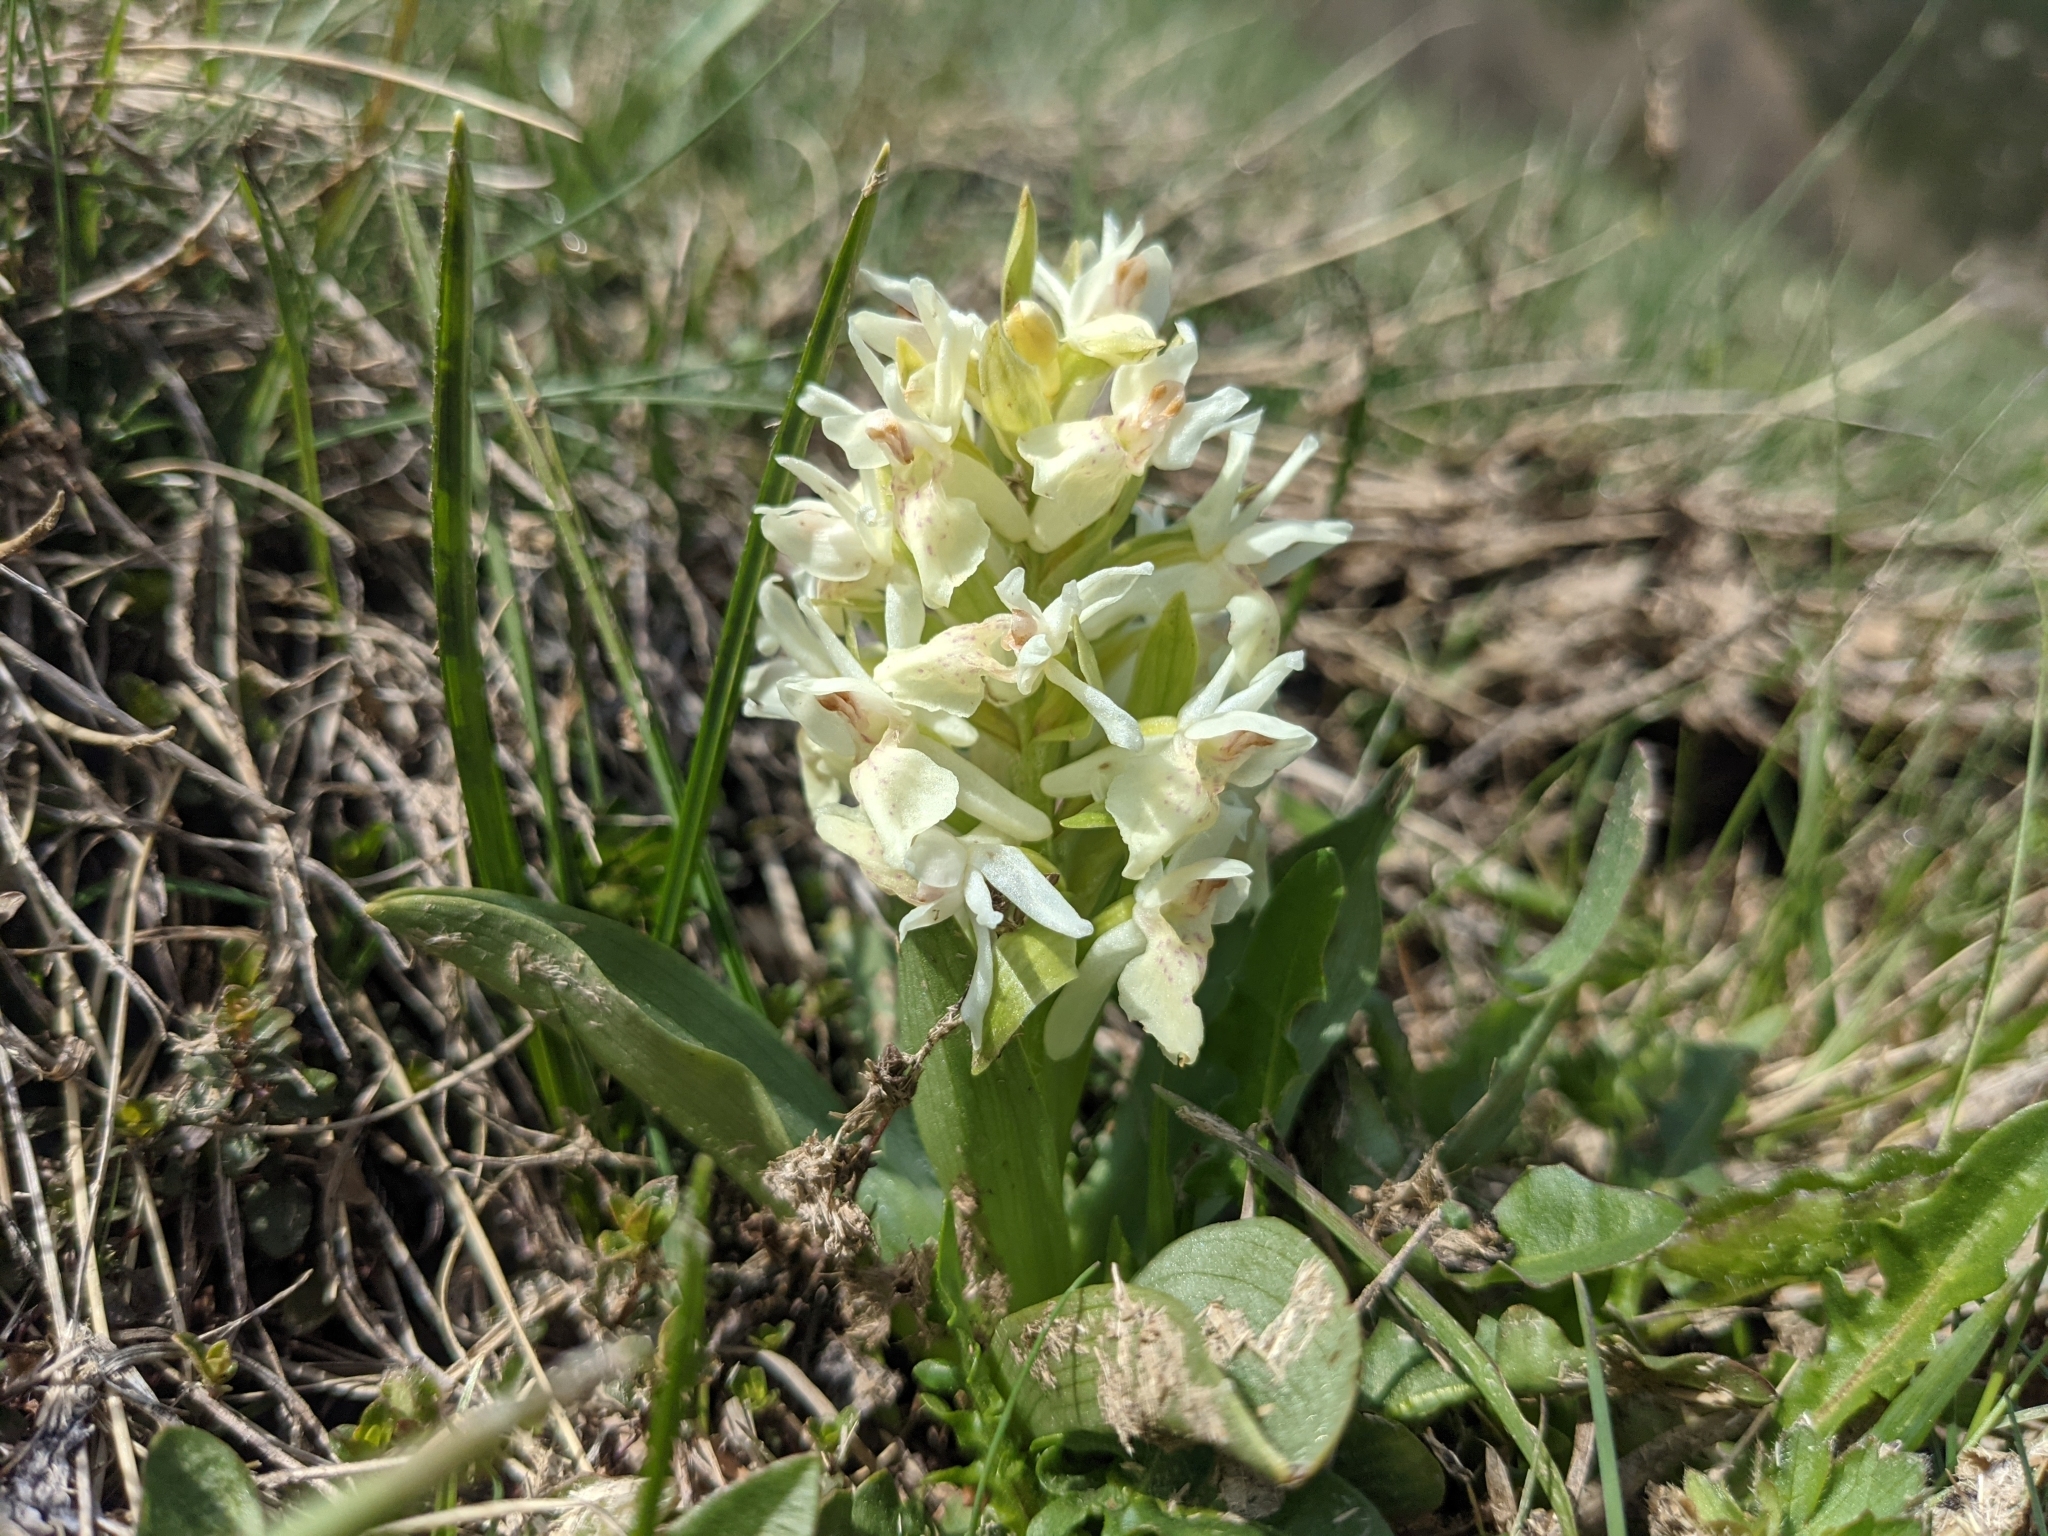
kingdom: Plantae
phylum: Tracheophyta
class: Liliopsida
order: Asparagales
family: Orchidaceae
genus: Dactylorhiza
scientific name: Dactylorhiza sambucina
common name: Elder-flowered orchid
